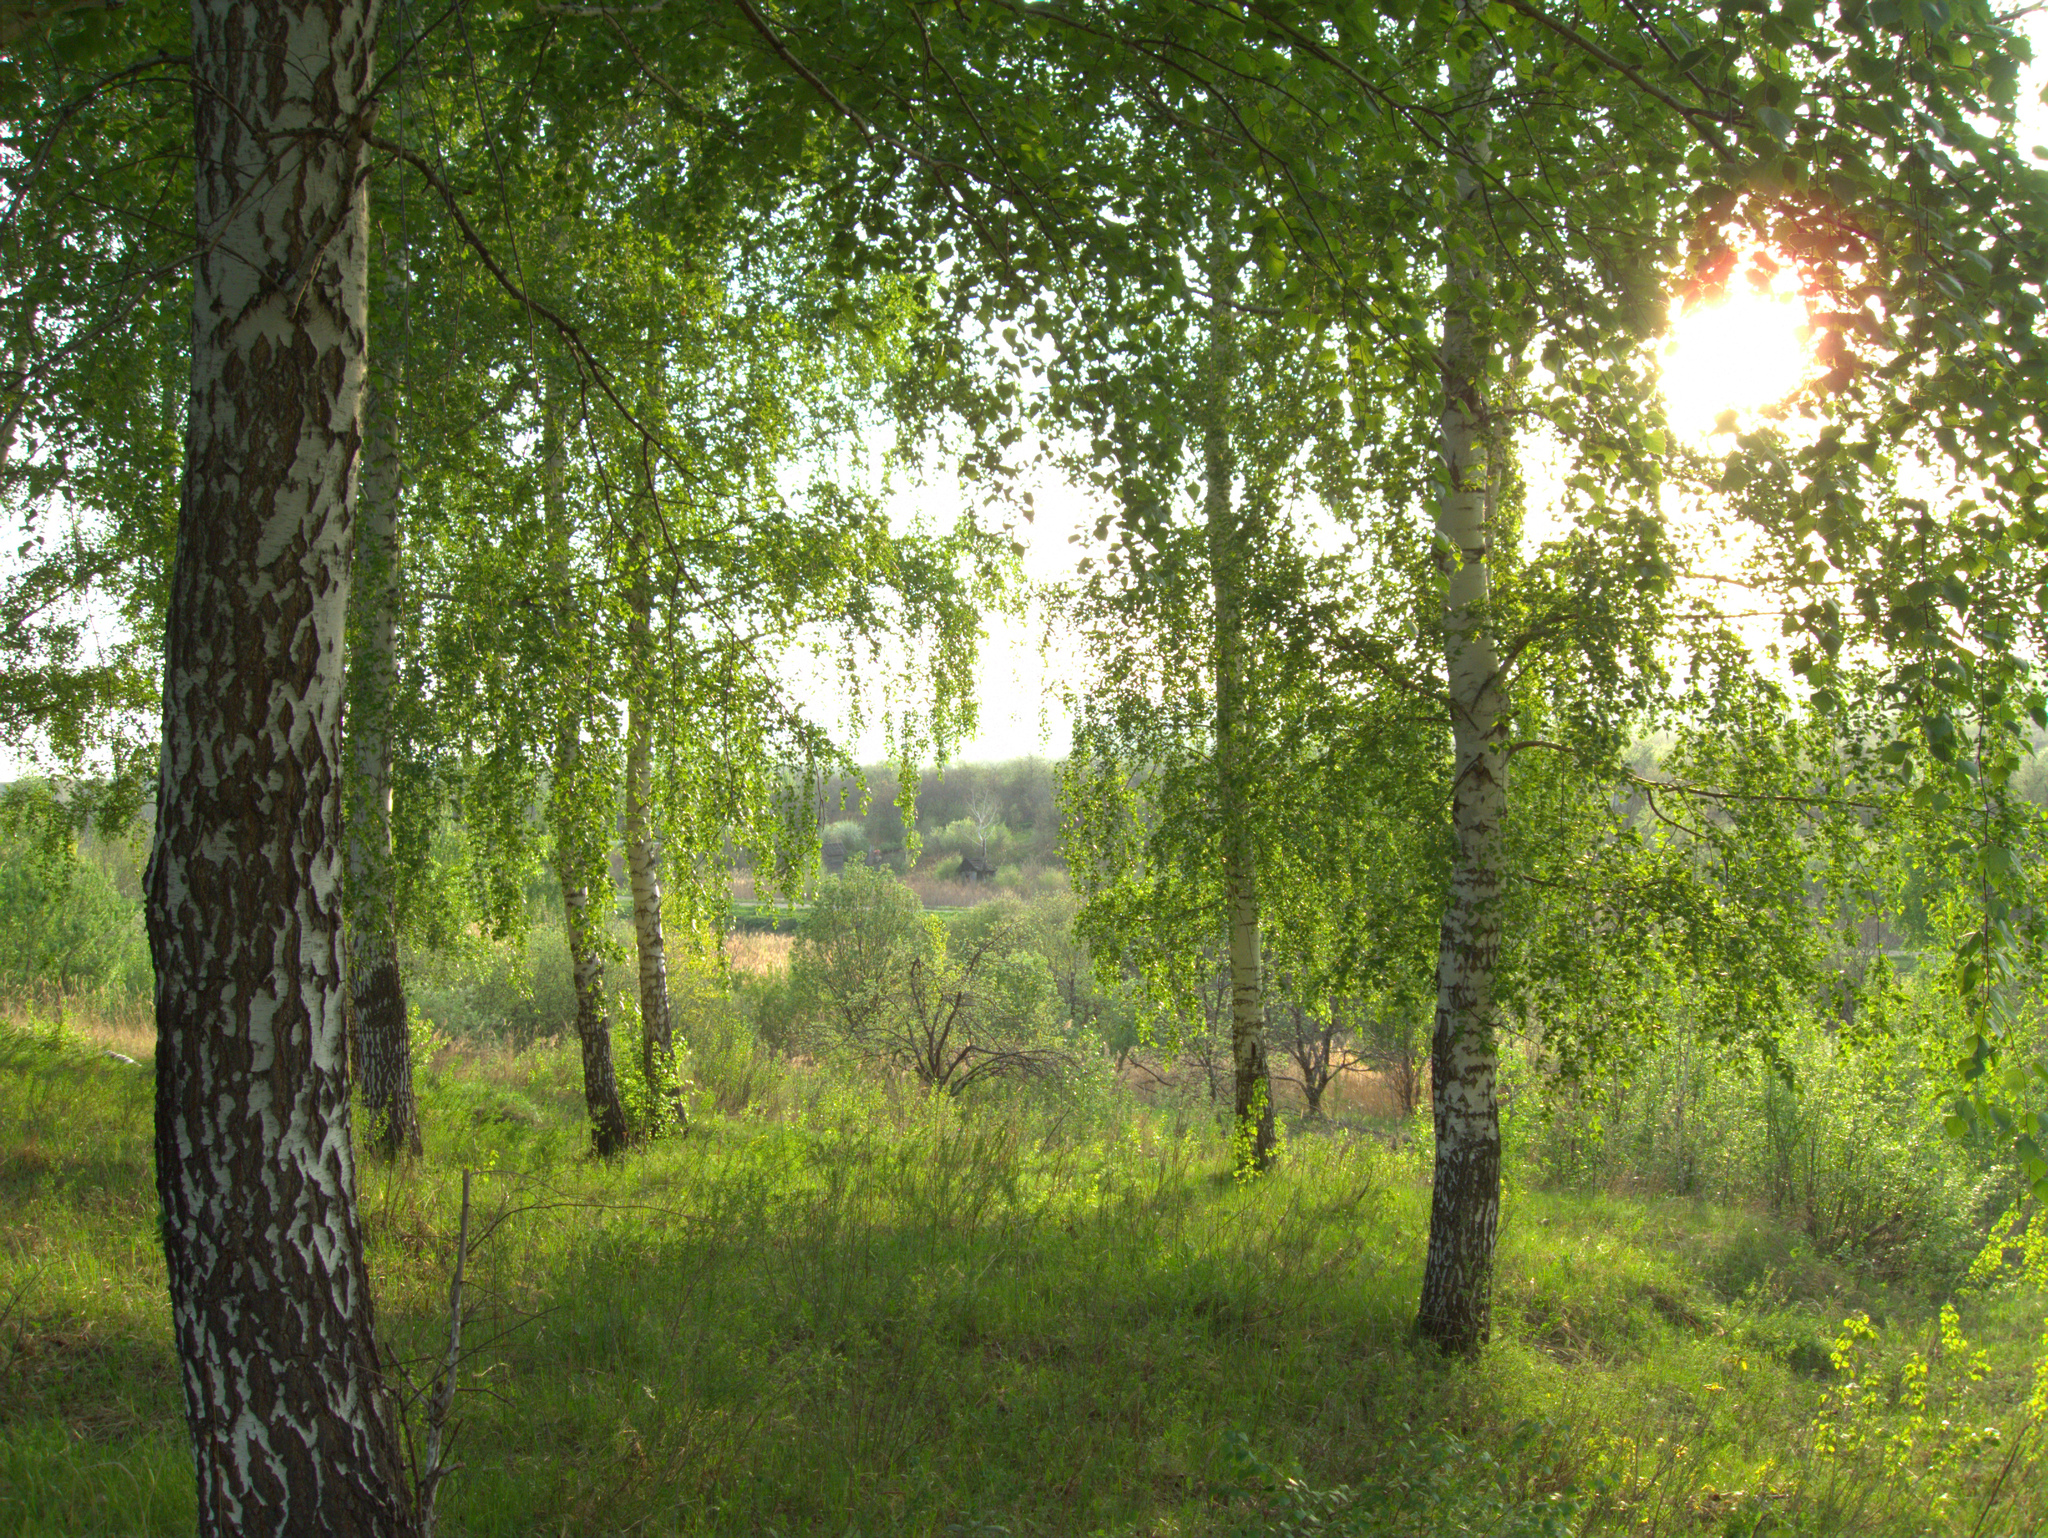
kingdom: Plantae
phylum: Tracheophyta
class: Magnoliopsida
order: Fagales
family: Betulaceae
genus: Betula
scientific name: Betula pendula
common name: Silver birch
